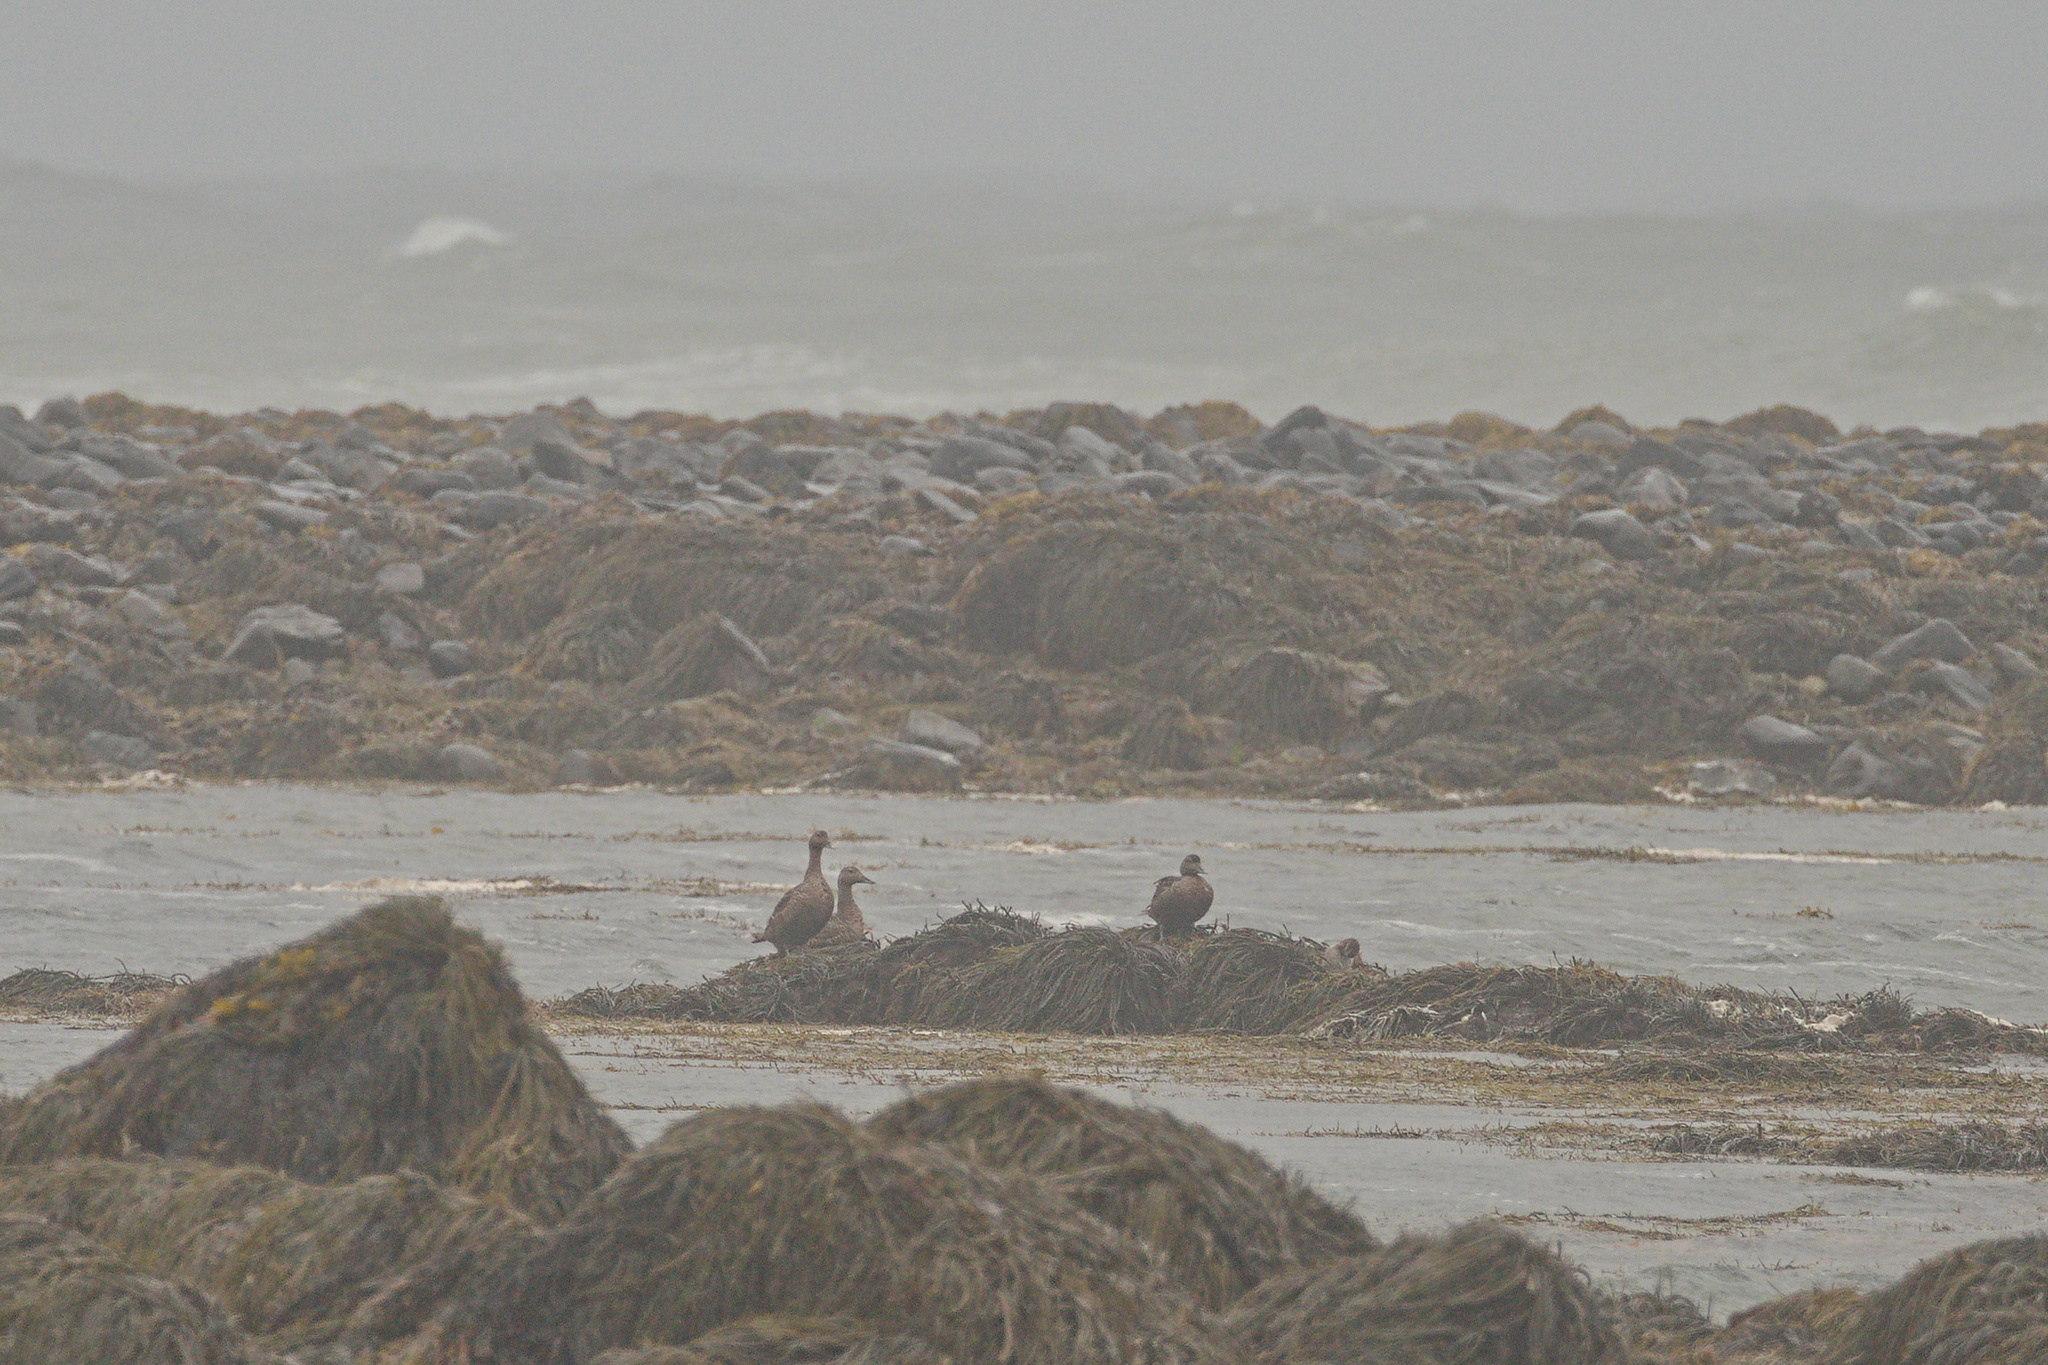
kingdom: Animalia
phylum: Chordata
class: Aves
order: Anseriformes
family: Anatidae
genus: Somateria
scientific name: Somateria mollissima
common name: Common eider
